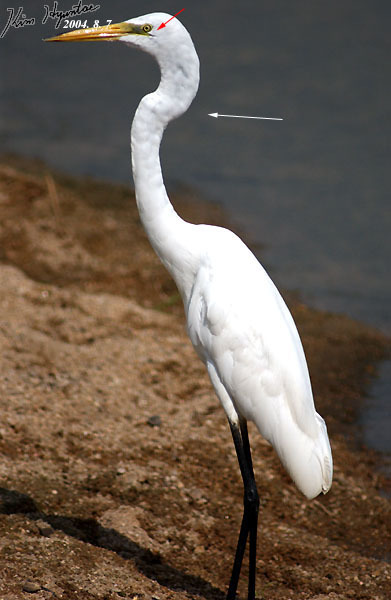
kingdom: Animalia
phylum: Chordata
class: Aves
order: Pelecaniformes
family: Ardeidae
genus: Ardea
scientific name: Ardea alba
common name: Great egret
